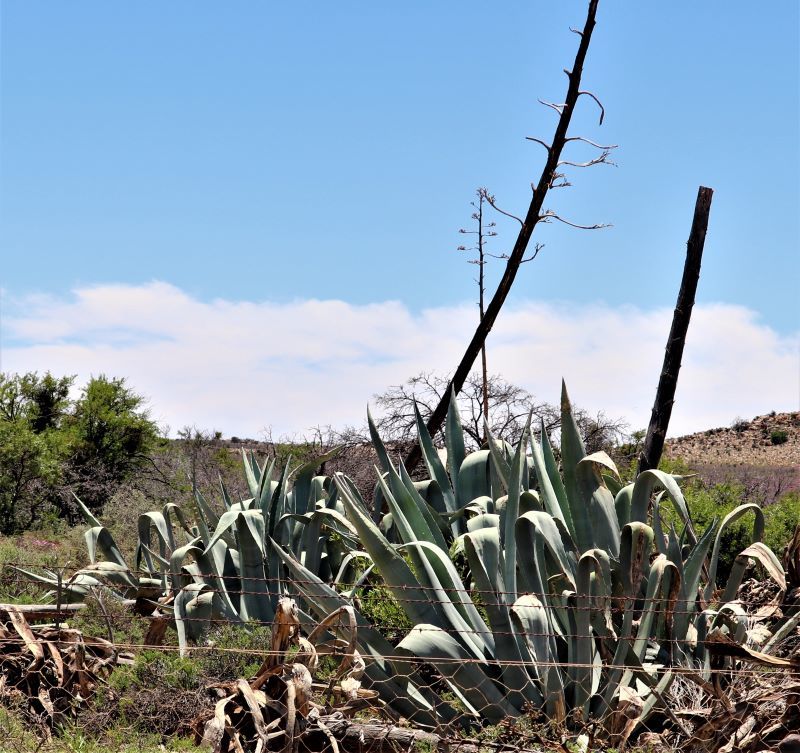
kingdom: Plantae
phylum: Tracheophyta
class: Liliopsida
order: Asparagales
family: Asparagaceae
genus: Agave
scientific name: Agave americana
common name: Centuryplant
